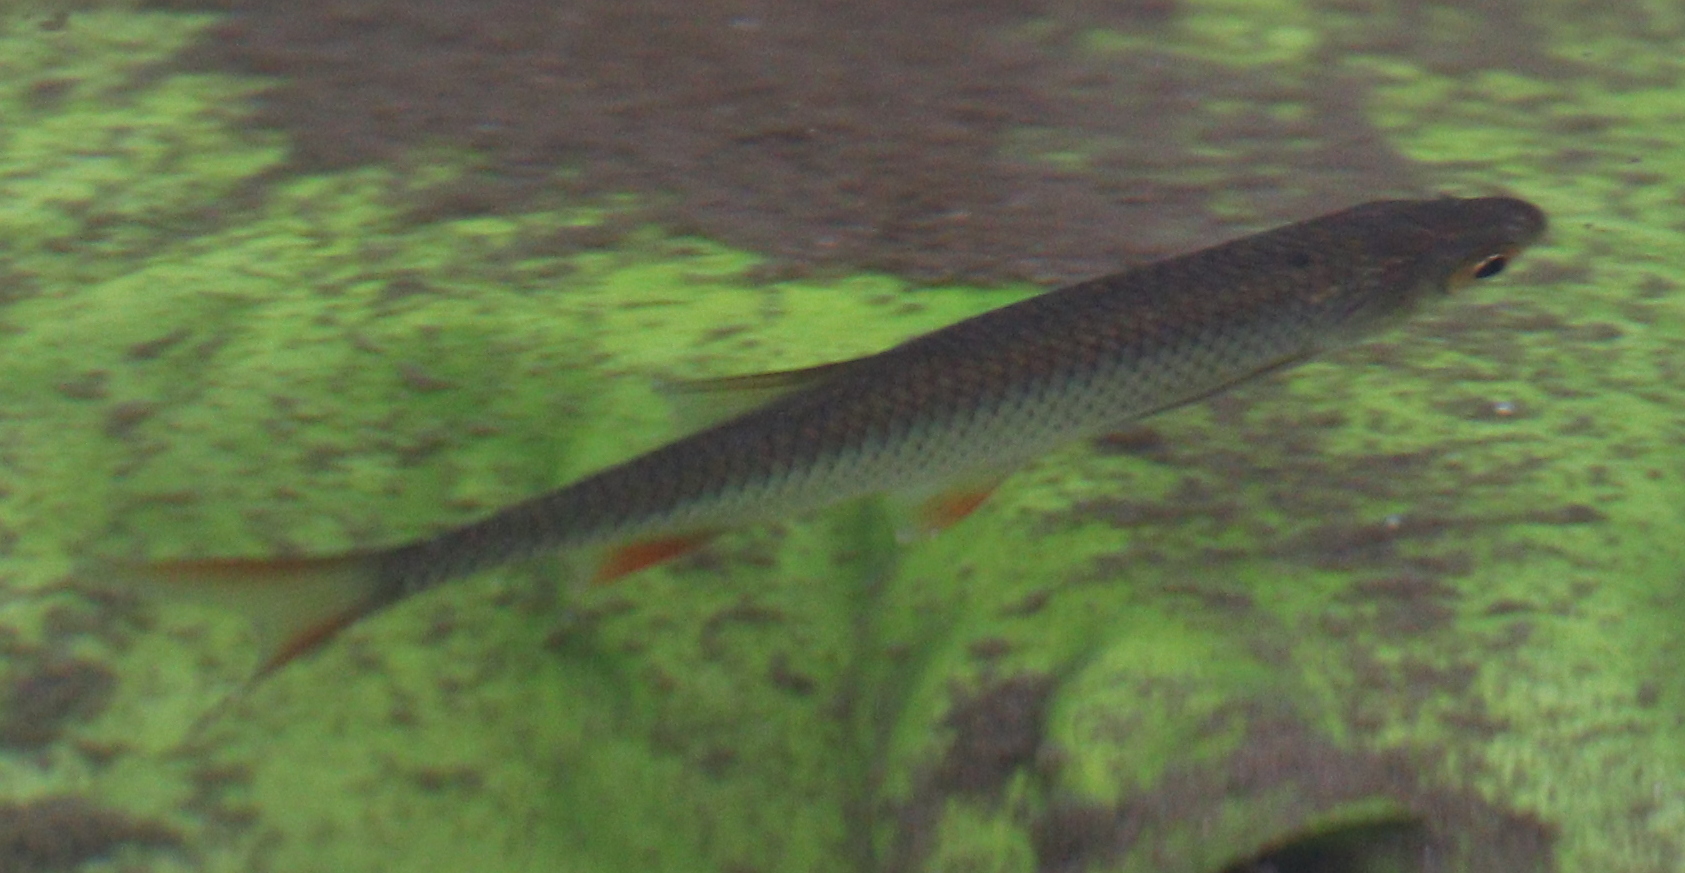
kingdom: Animalia
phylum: Chordata
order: Cypriniformes
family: Cyprinidae
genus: Rutilus
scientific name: Rutilus rutilus
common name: Roach
